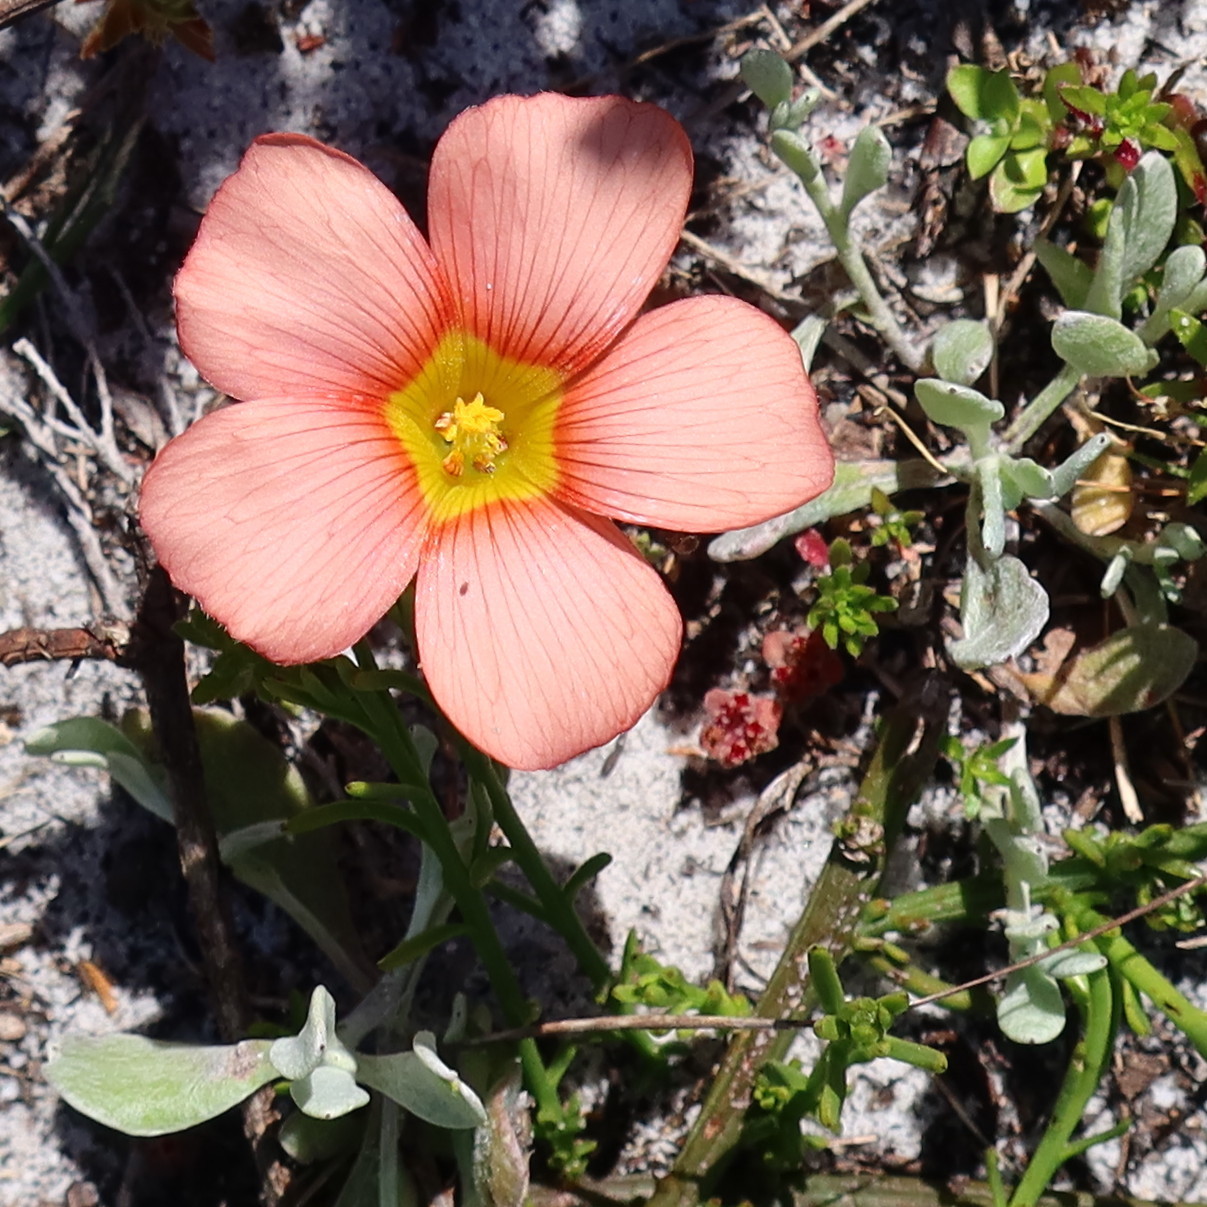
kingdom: Plantae
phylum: Tracheophyta
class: Magnoliopsida
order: Oxalidales
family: Oxalidaceae
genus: Oxalis
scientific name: Oxalis obtusa
